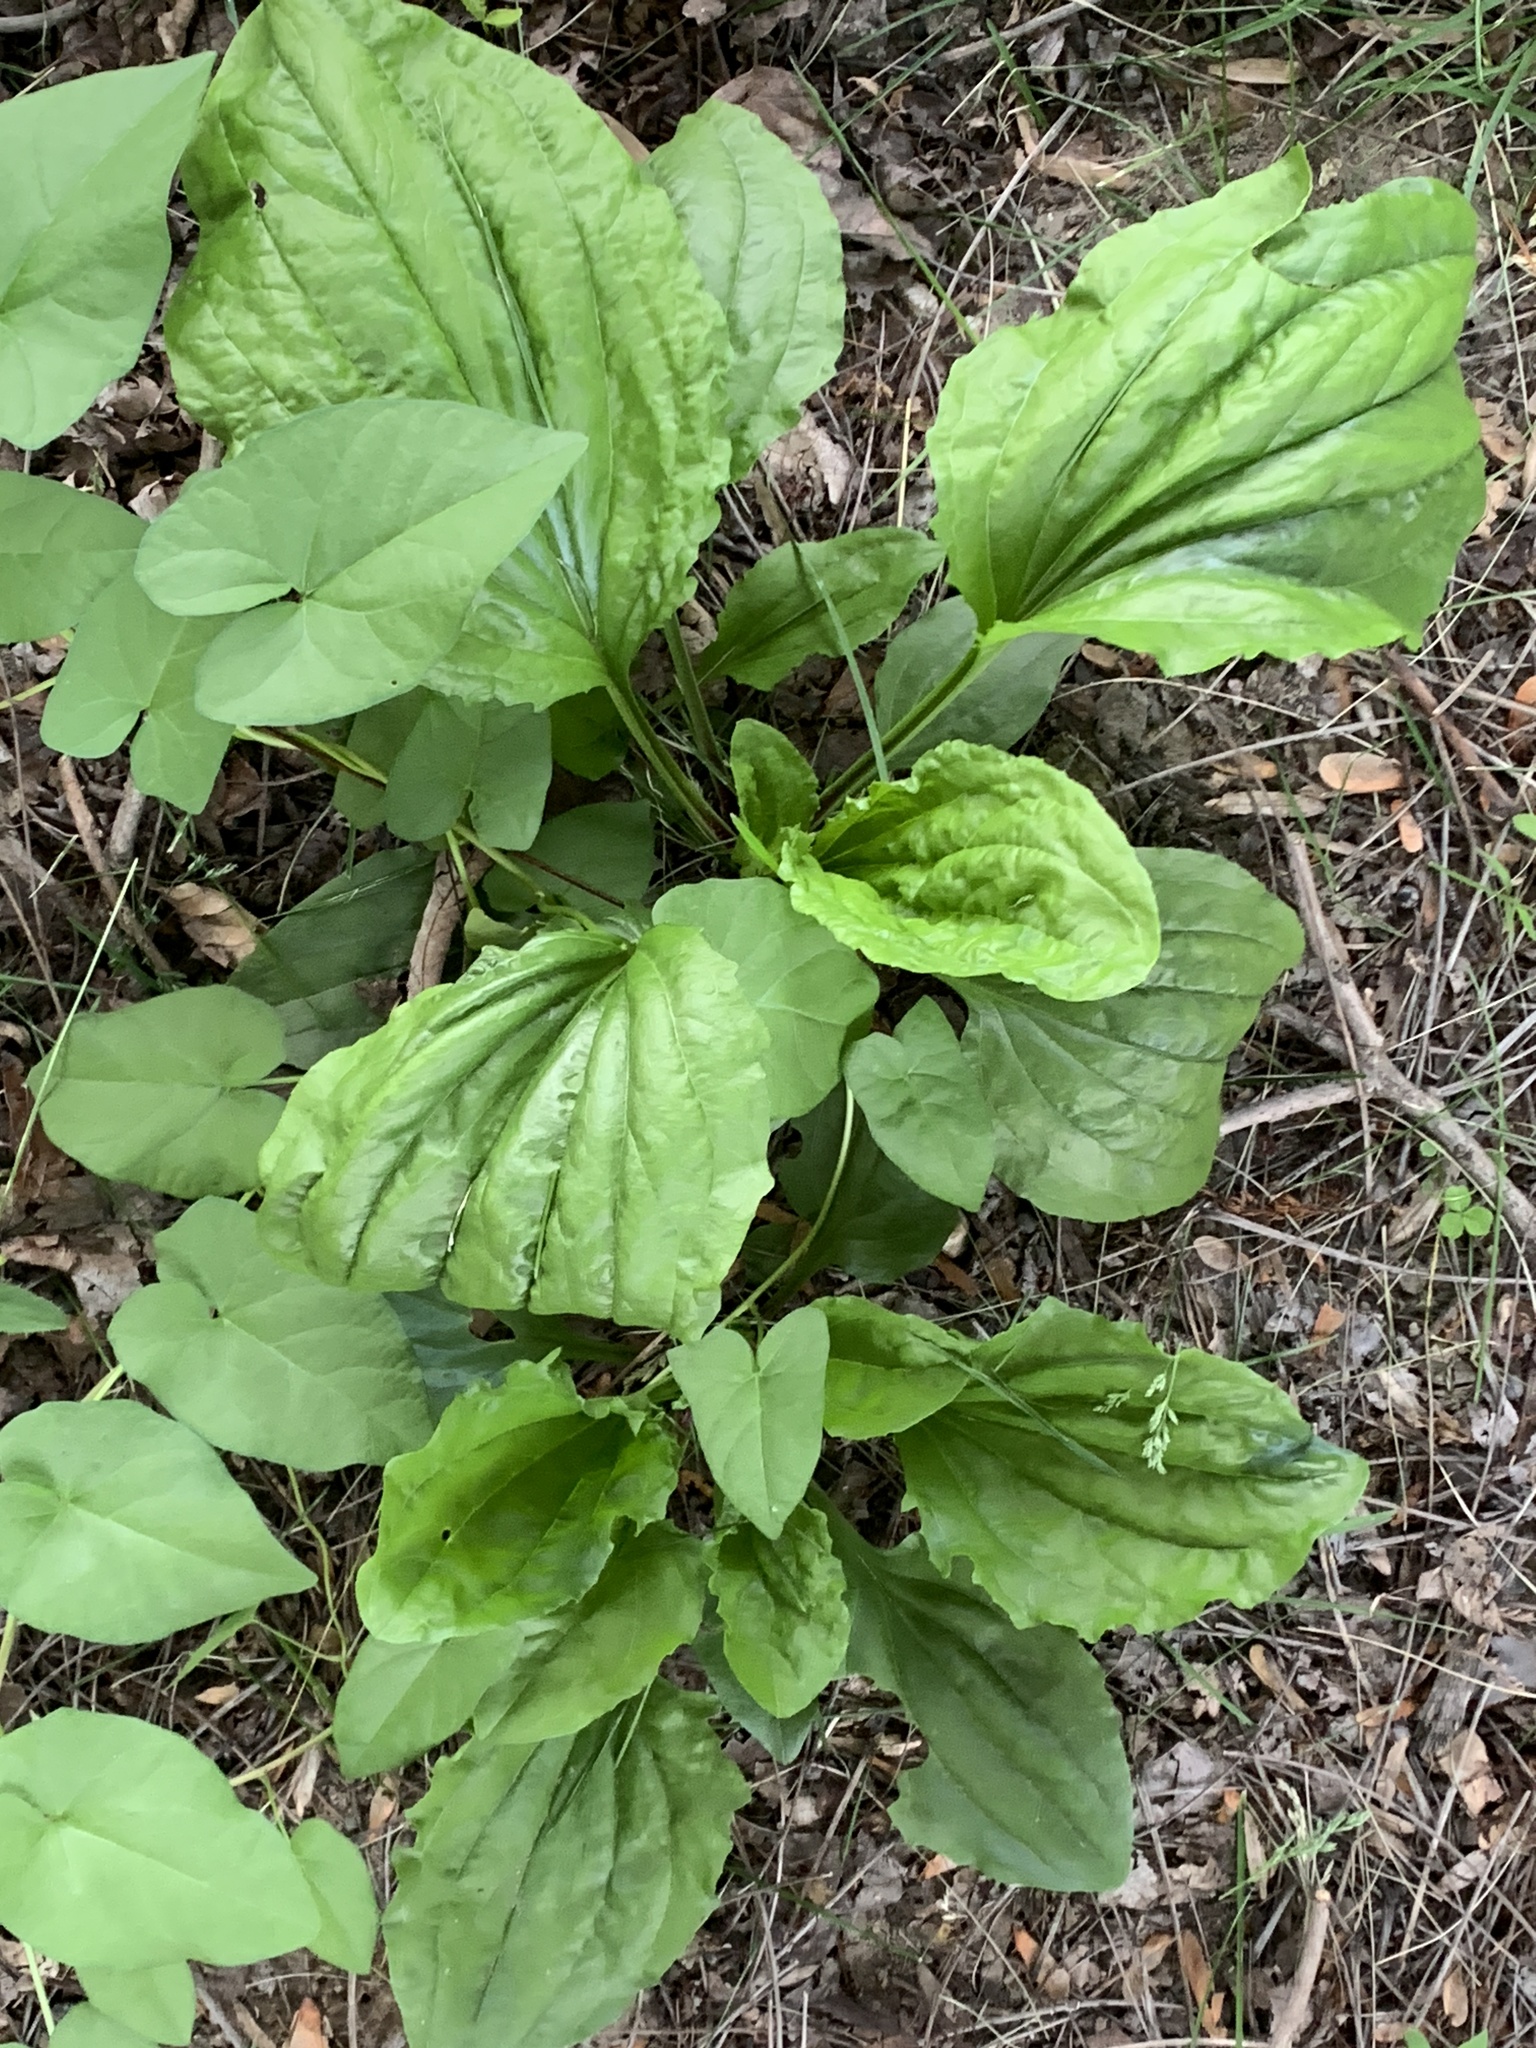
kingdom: Plantae
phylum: Tracheophyta
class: Magnoliopsida
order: Lamiales
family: Plantaginaceae
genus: Plantago
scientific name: Plantago rugelii
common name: American plantain
